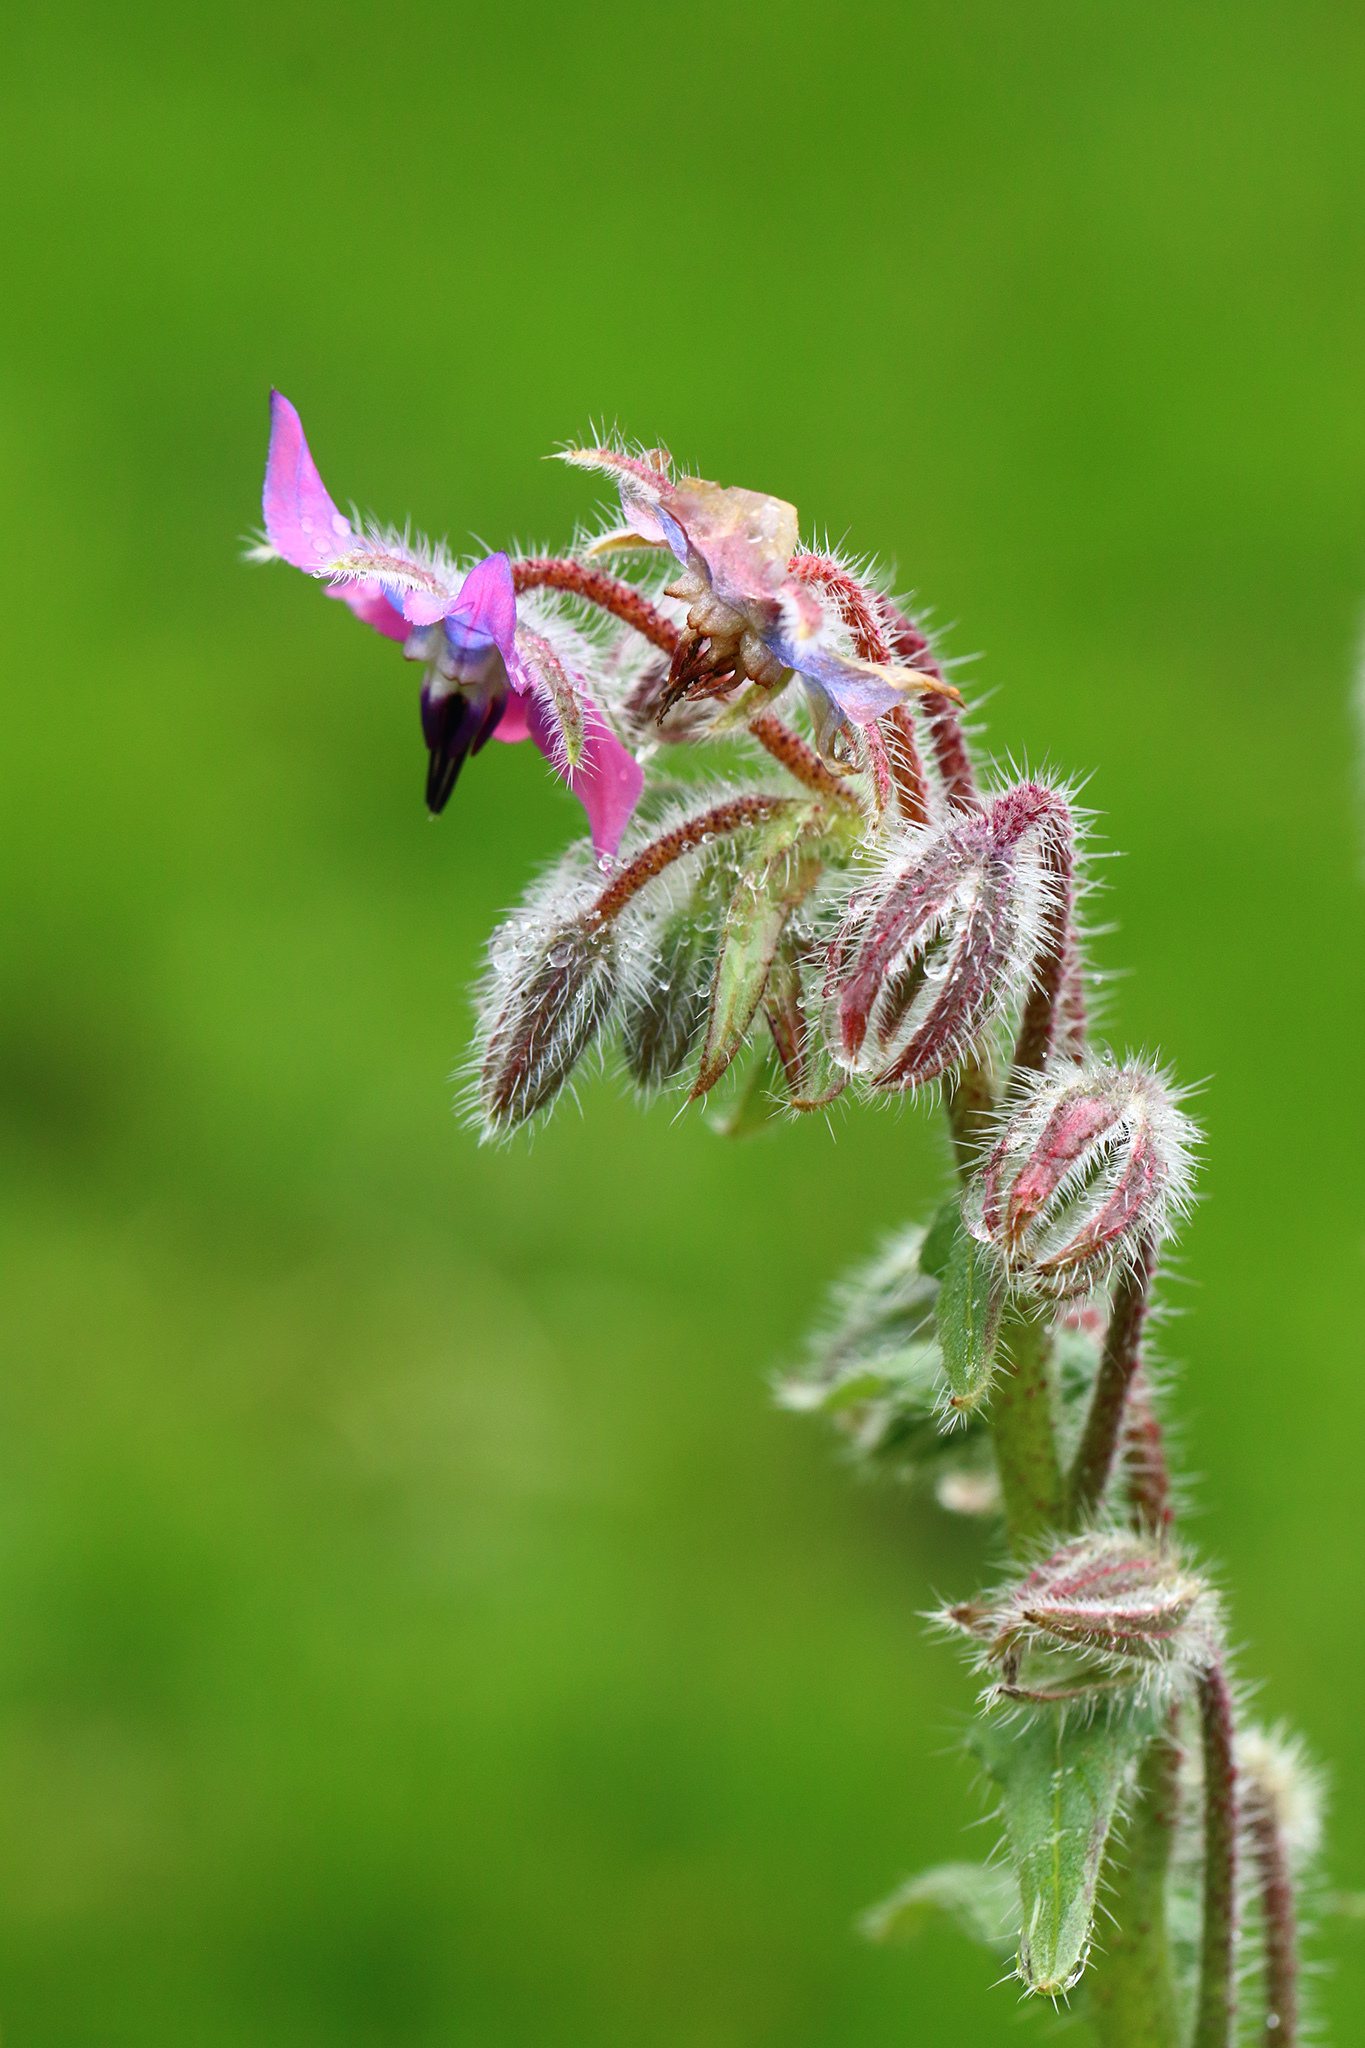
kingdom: Plantae
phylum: Tracheophyta
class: Magnoliopsida
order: Boraginales
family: Boraginaceae
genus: Borago
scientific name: Borago officinalis
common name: Borage
